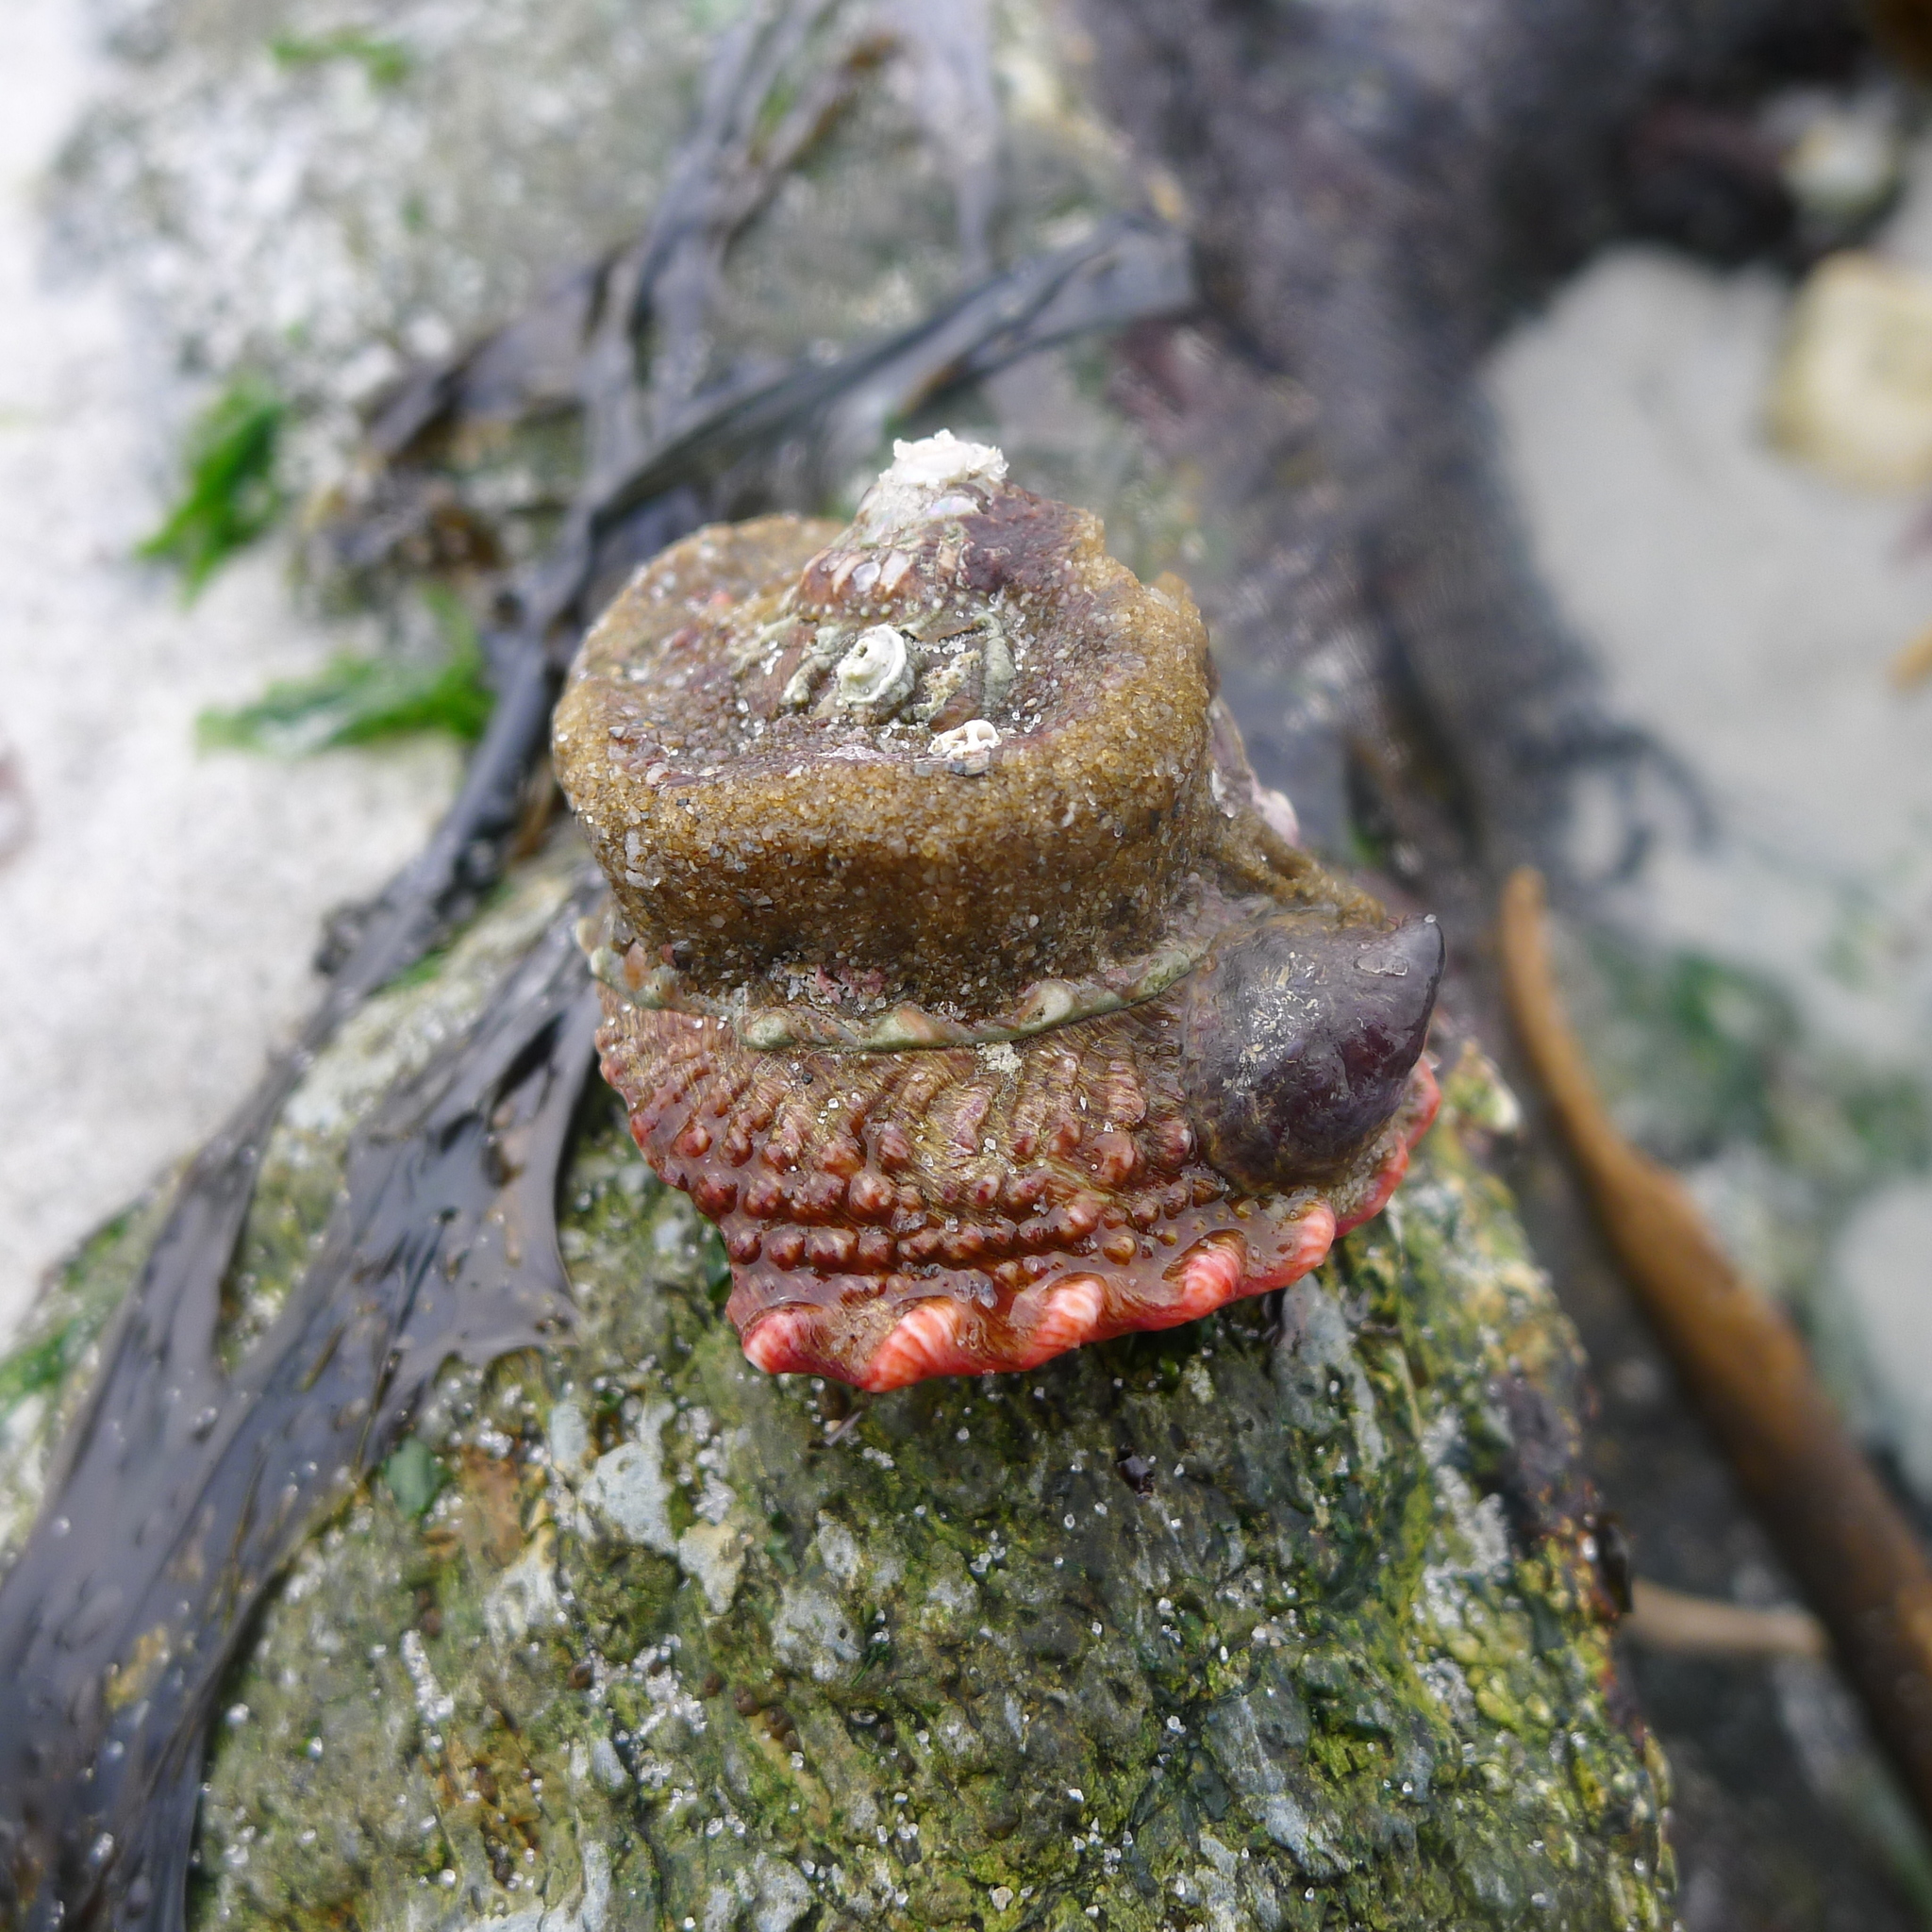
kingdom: Animalia
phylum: Mollusca
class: Gastropoda
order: Littorinimorpha
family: Calyptraeidae
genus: Crepidula
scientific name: Crepidula adunca
